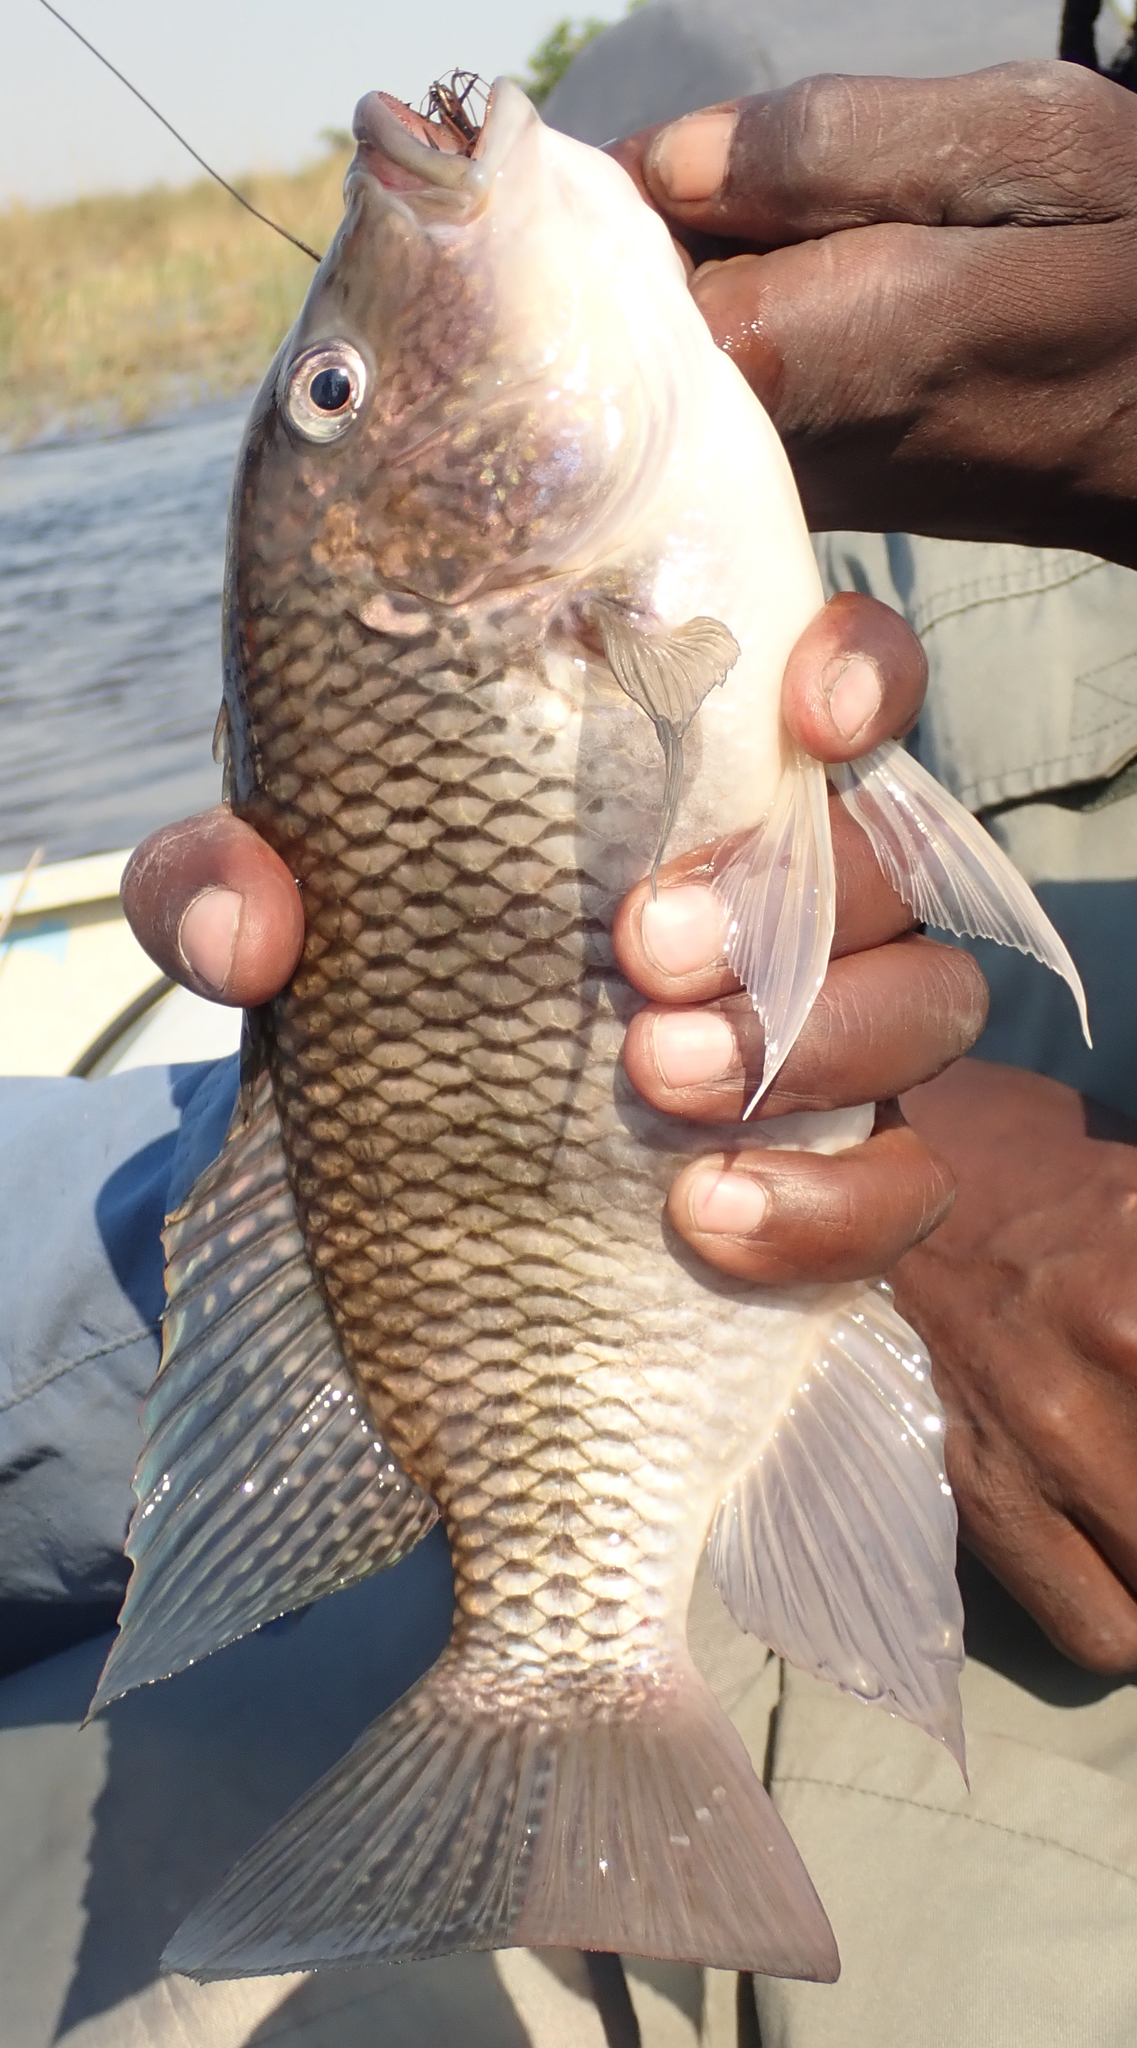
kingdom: Animalia
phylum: Chordata
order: Perciformes
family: Cichlidae
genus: Coptodon
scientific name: Coptodon rendalli
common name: Redbreast tilapia
